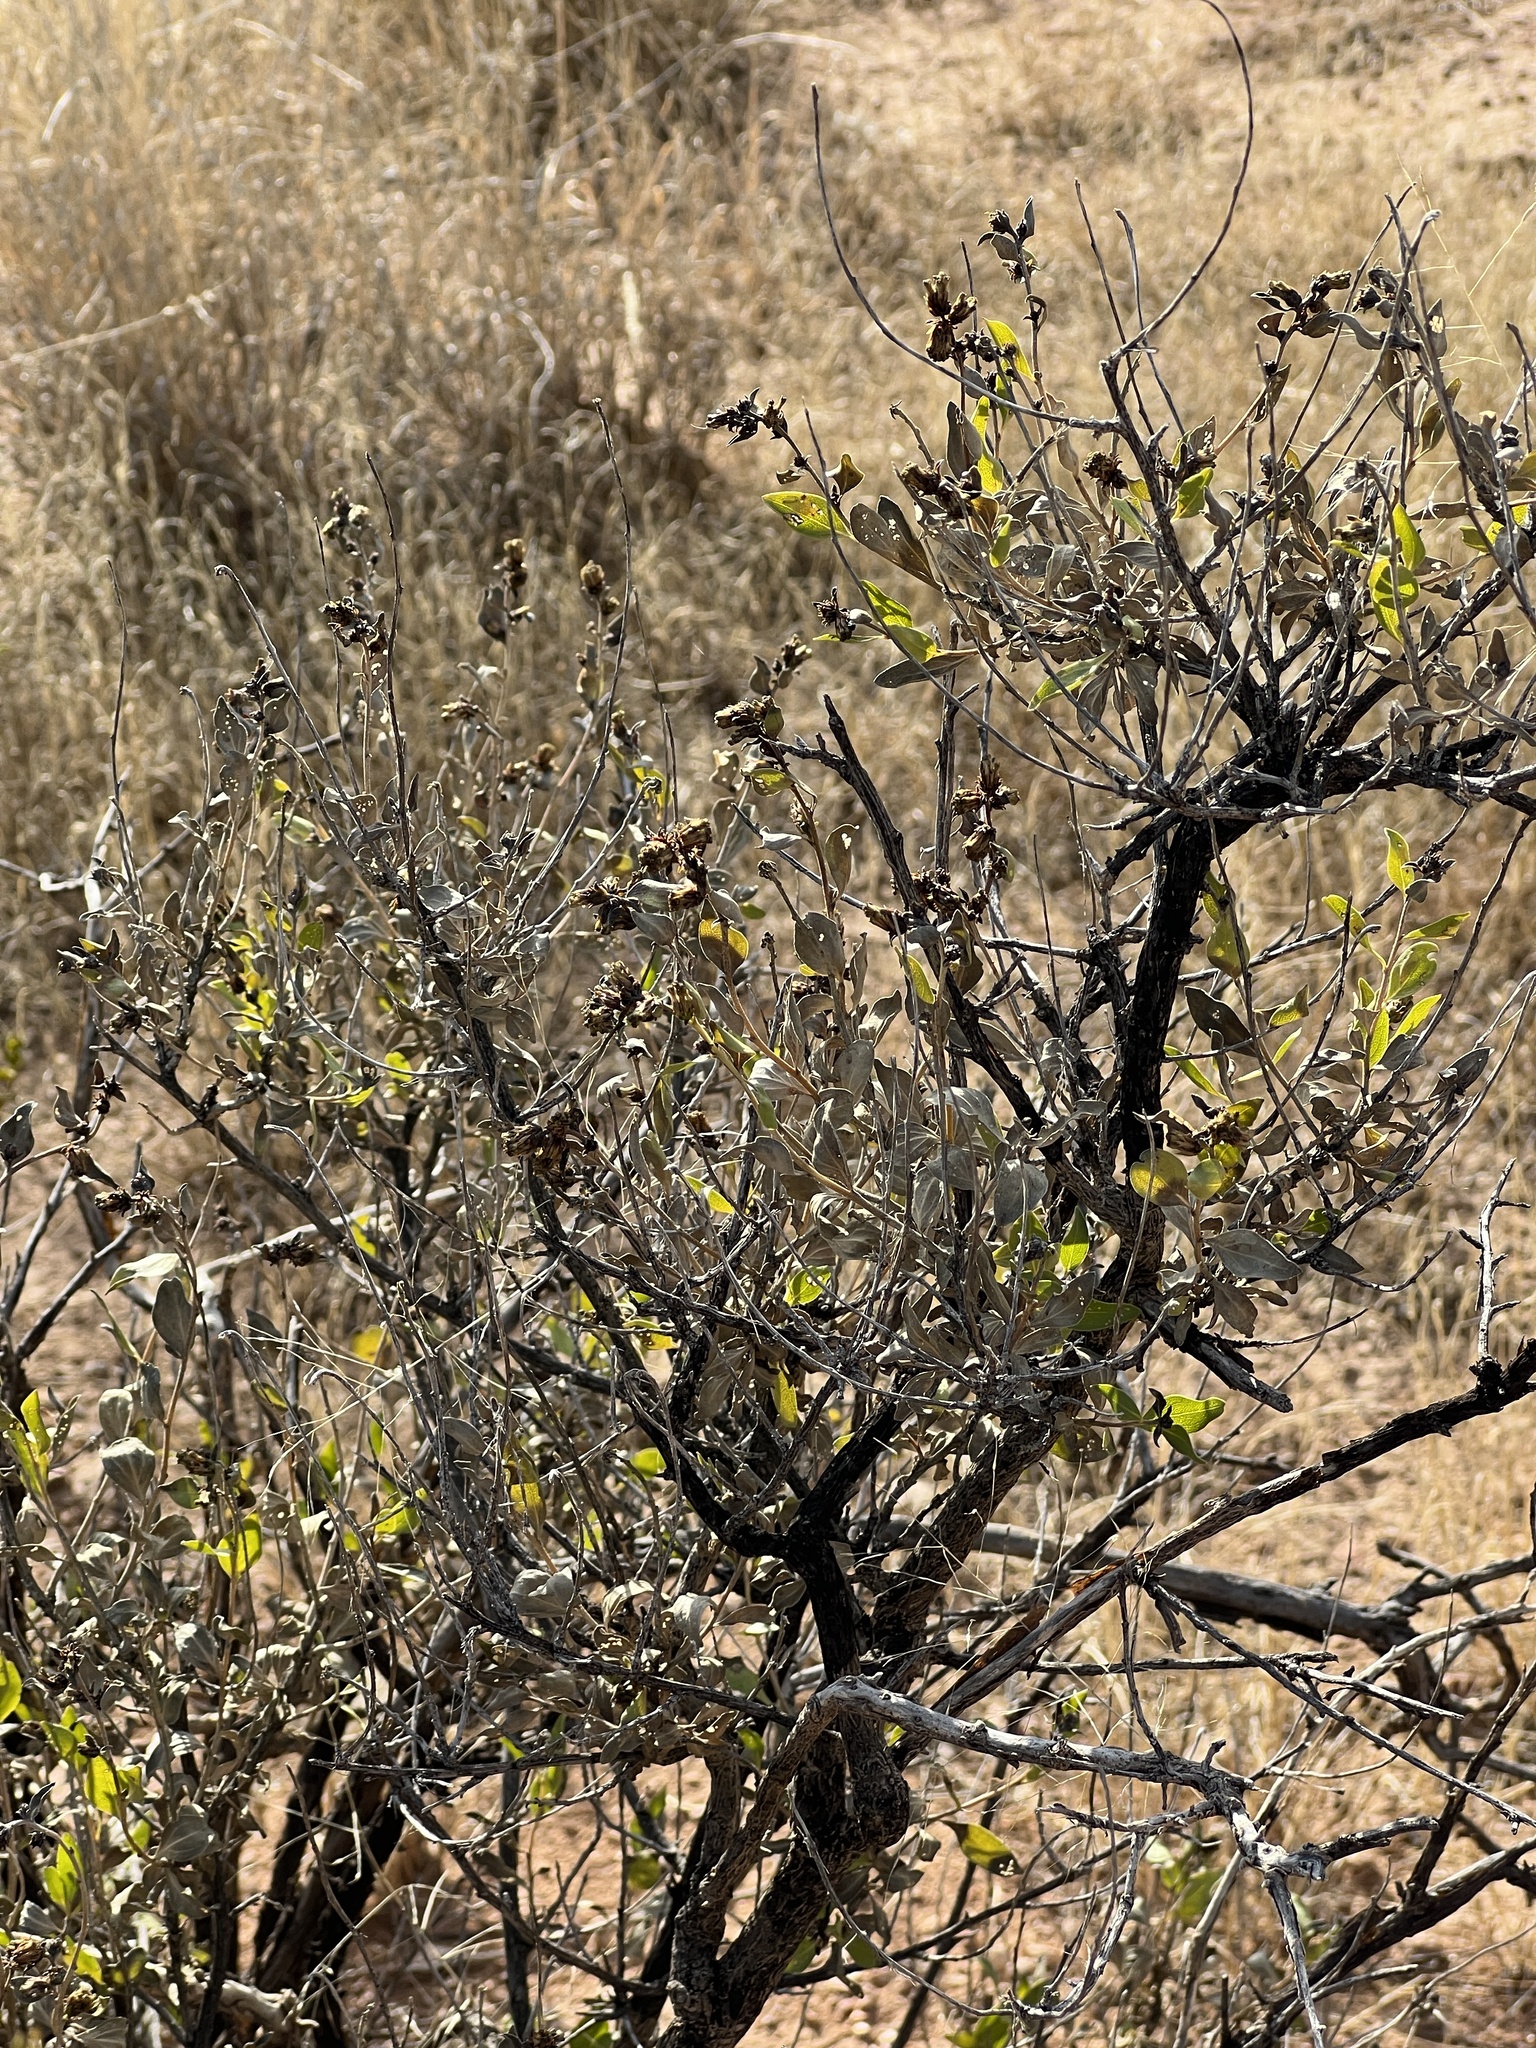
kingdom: Plantae
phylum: Tracheophyta
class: Magnoliopsida
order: Asterales
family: Asteraceae
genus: Flourensia
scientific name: Flourensia cernua
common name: Varnishbush
